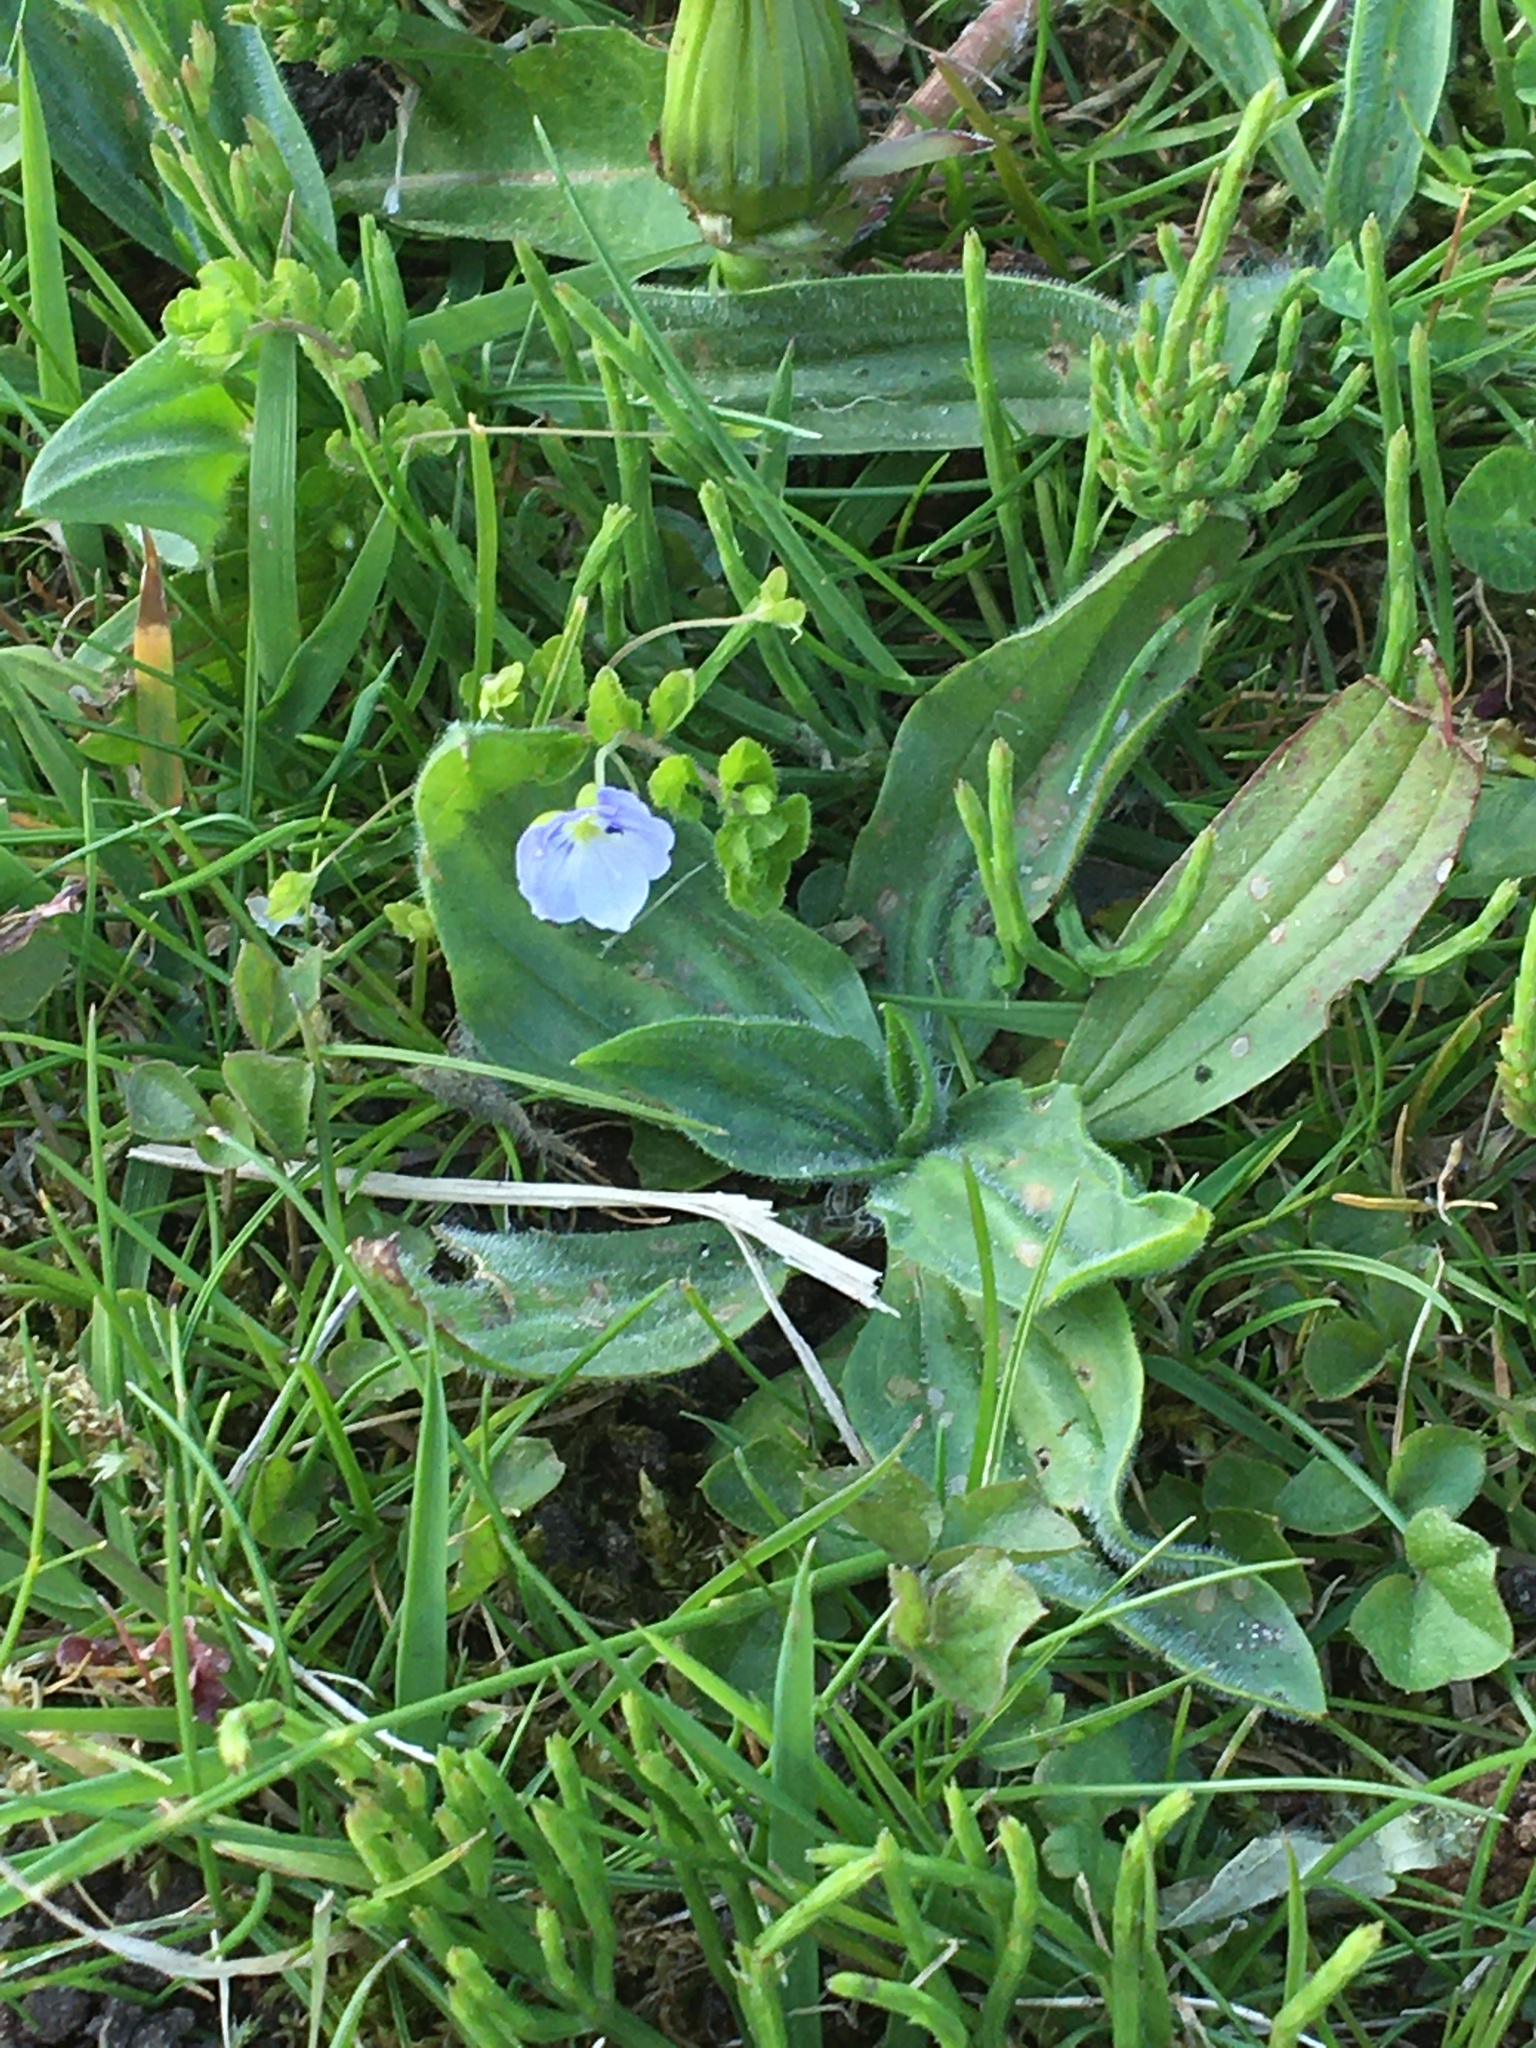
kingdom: Plantae
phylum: Tracheophyta
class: Magnoliopsida
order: Lamiales
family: Plantaginaceae
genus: Veronica
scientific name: Veronica filiformis
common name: Slender speedwell
